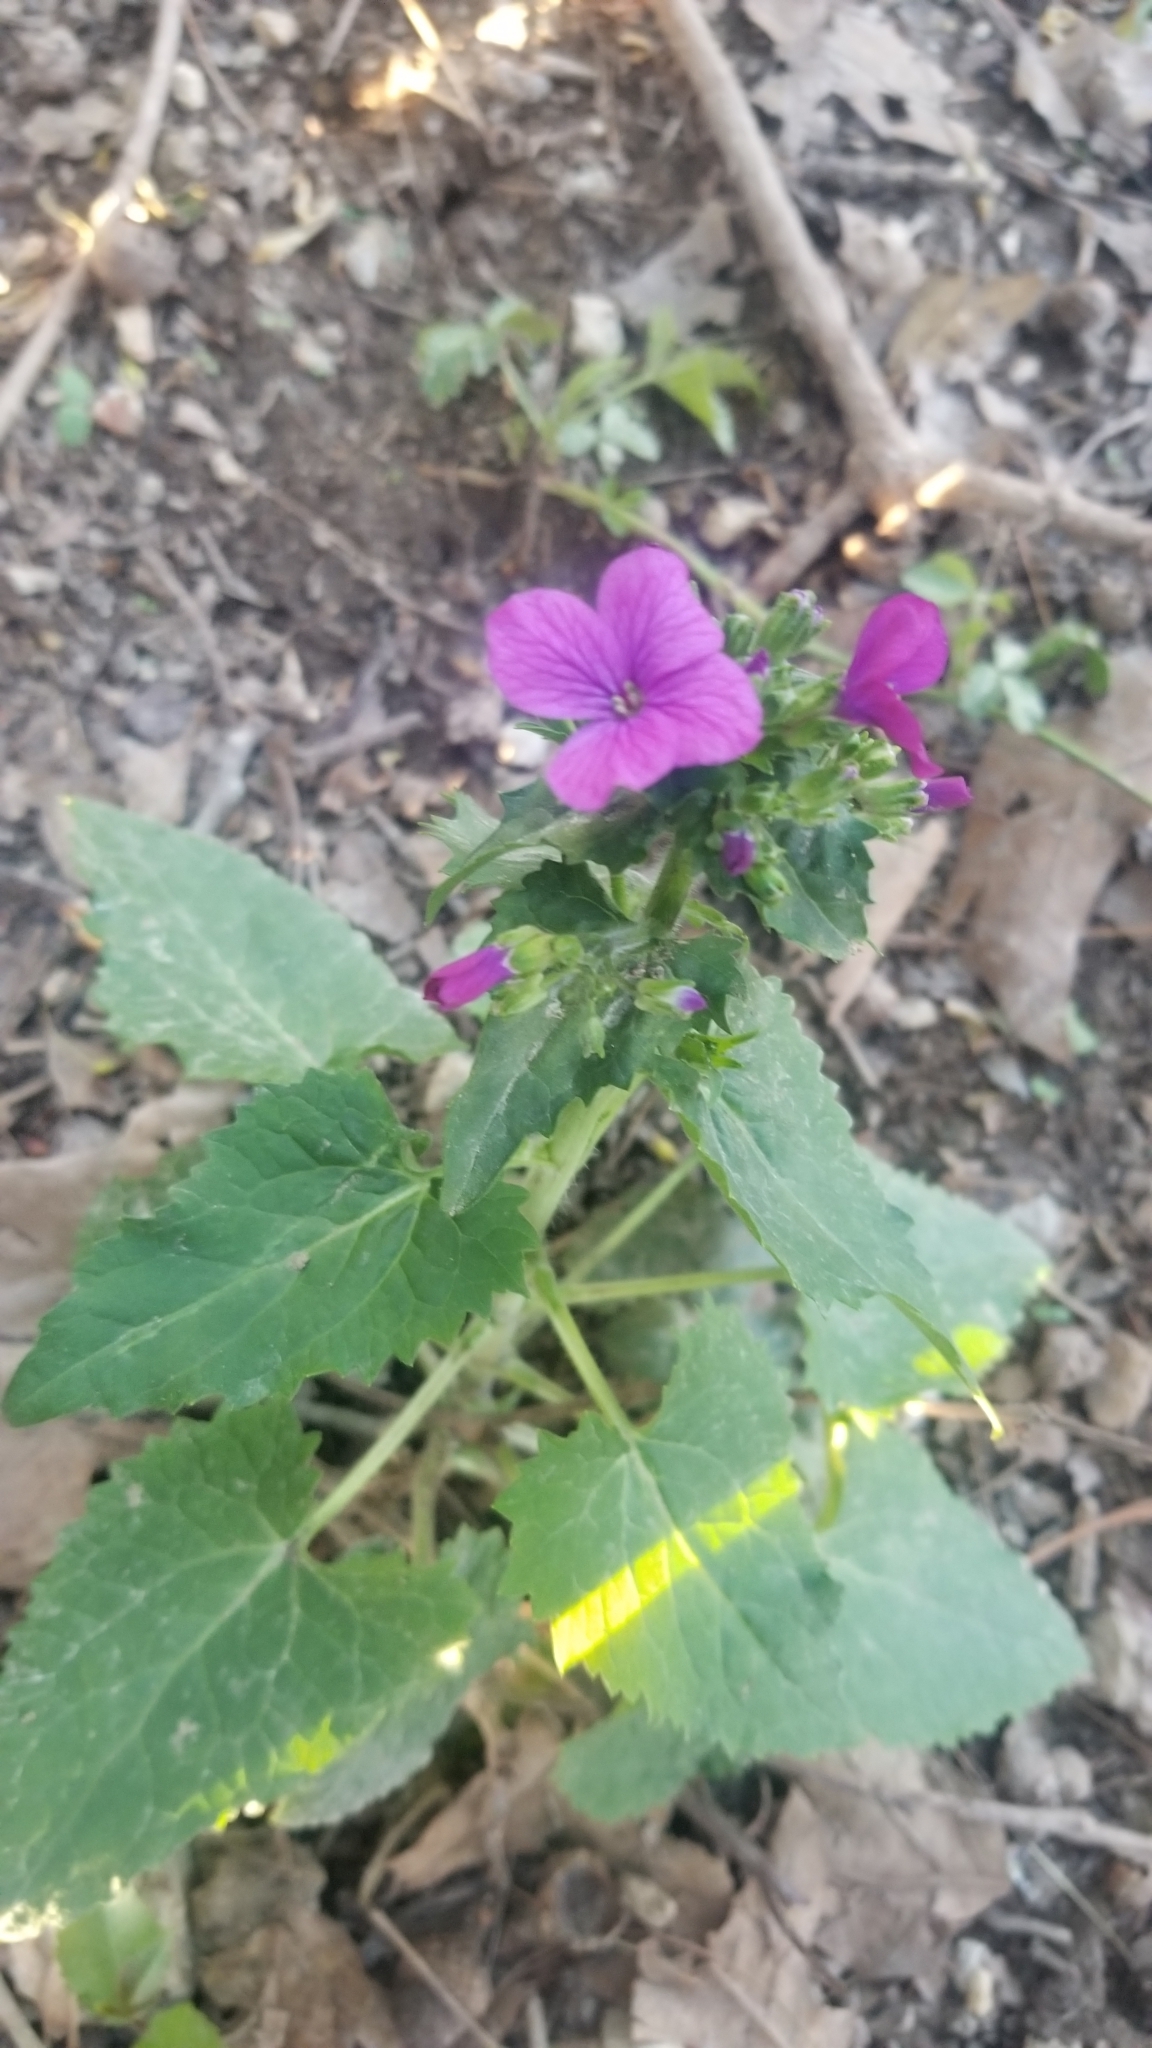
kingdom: Plantae
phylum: Tracheophyta
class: Magnoliopsida
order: Brassicales
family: Brassicaceae
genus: Lunaria
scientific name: Lunaria annua
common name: Honesty
